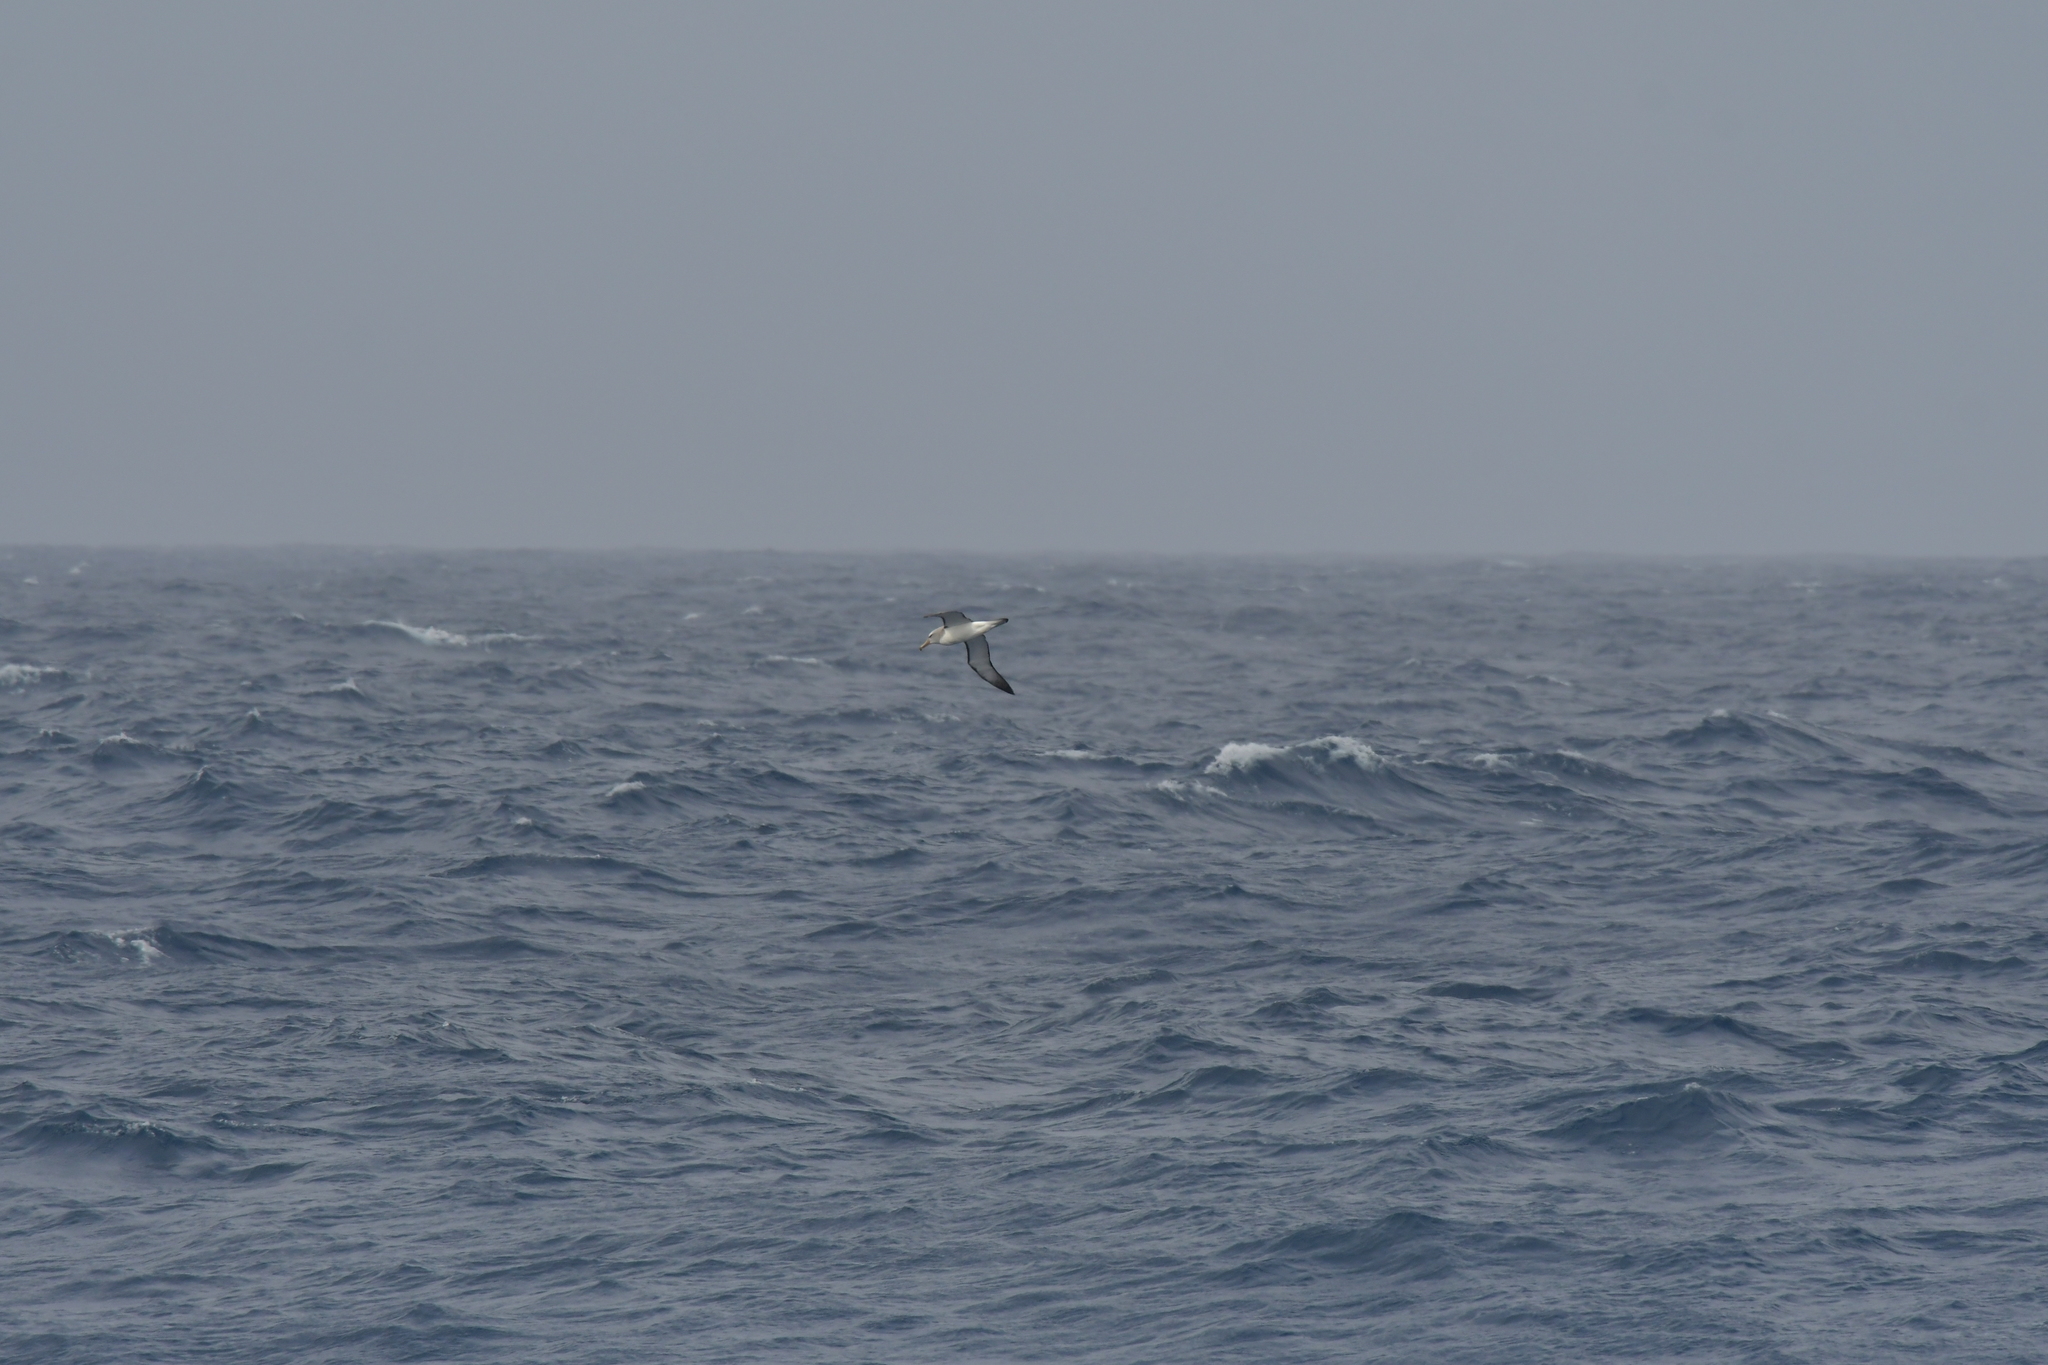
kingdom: Animalia
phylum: Chordata
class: Aves
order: Procellariiformes
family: Diomedeidae
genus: Thalassarche
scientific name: Thalassarche salvini
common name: Salvin's albatross
